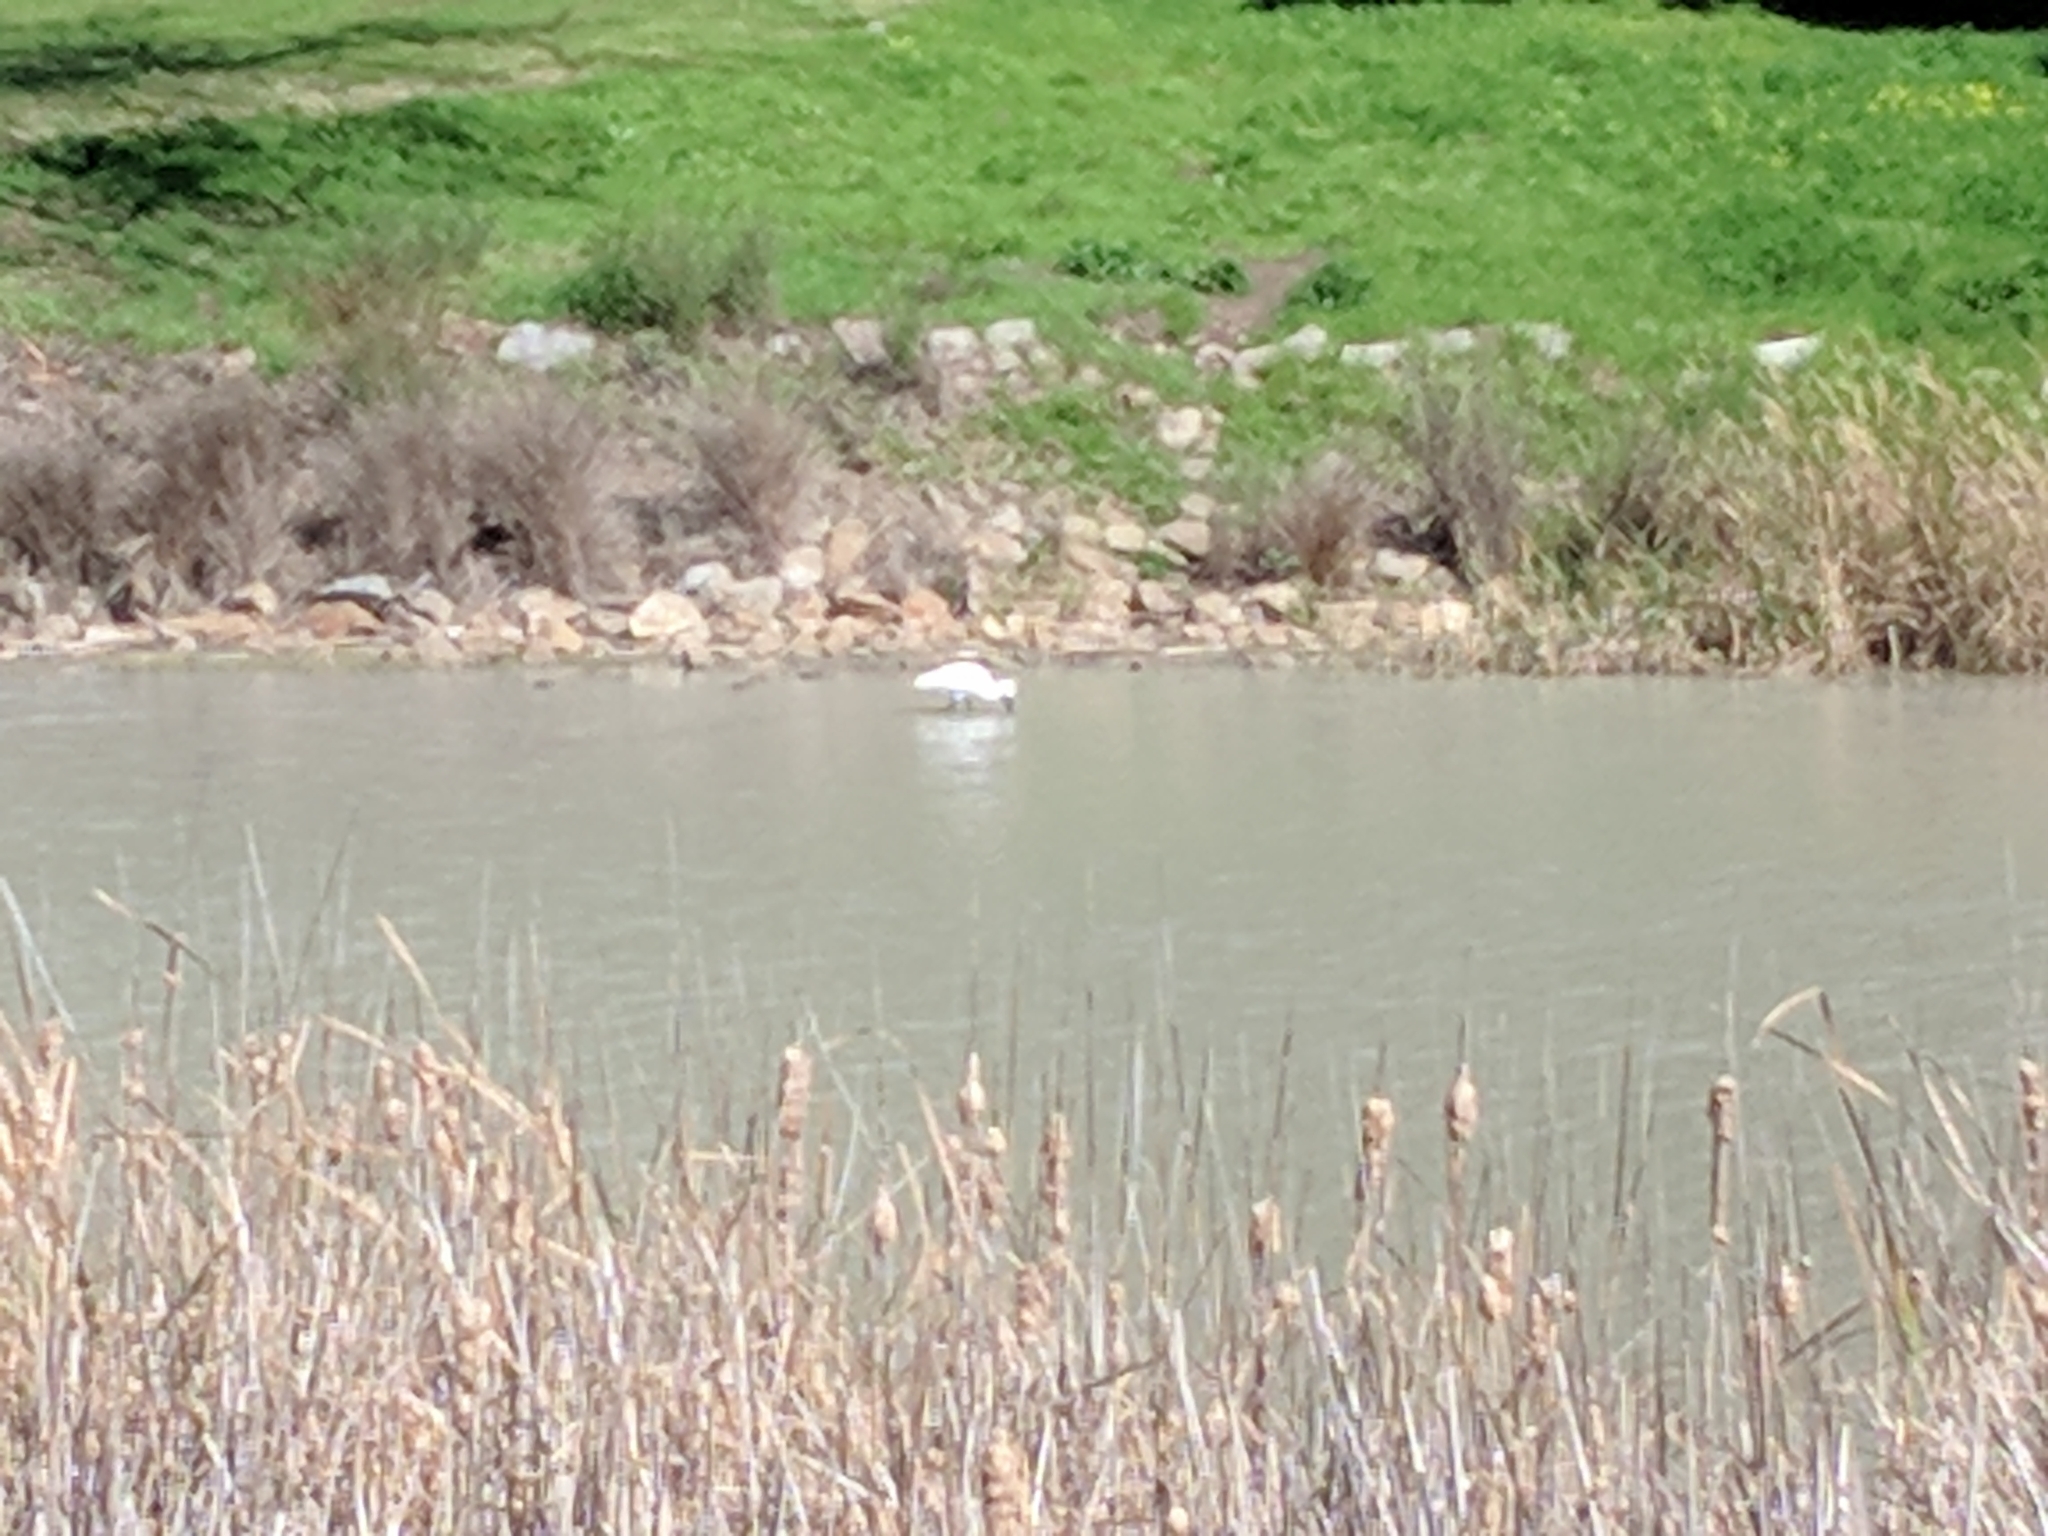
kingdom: Animalia
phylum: Chordata
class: Aves
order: Pelecaniformes
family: Threskiornithidae
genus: Platalea
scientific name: Platalea regia
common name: Royal spoonbill
